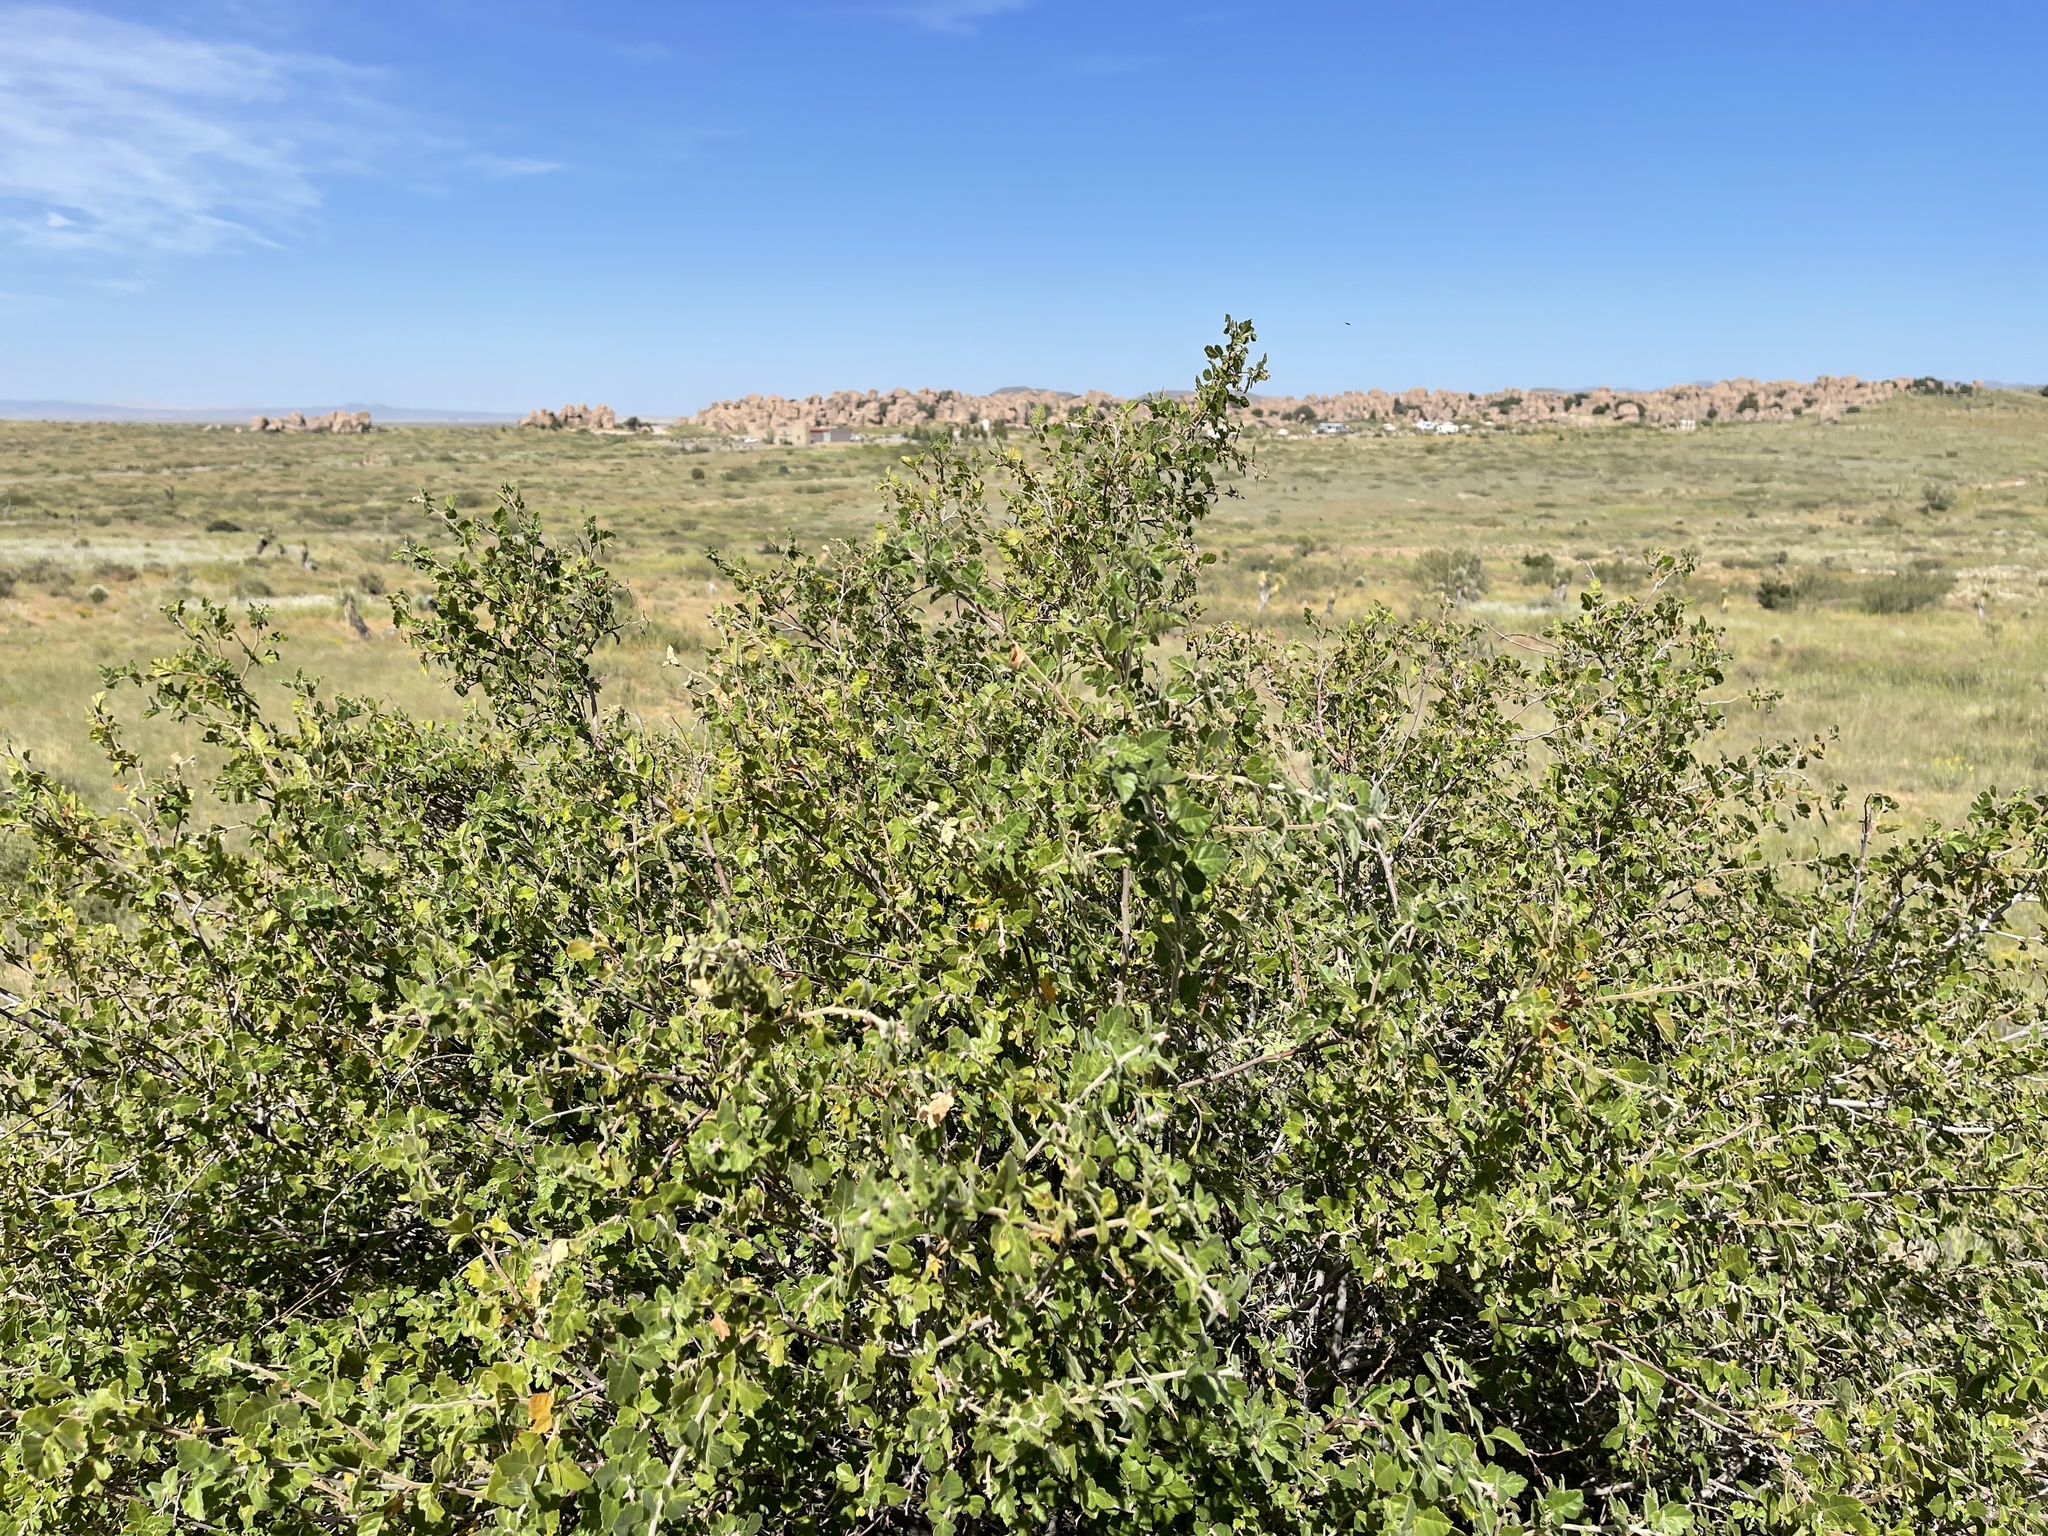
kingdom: Plantae
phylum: Tracheophyta
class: Magnoliopsida
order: Sapindales
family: Anacardiaceae
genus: Rhus
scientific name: Rhus aromatica
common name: Aromatic sumac
